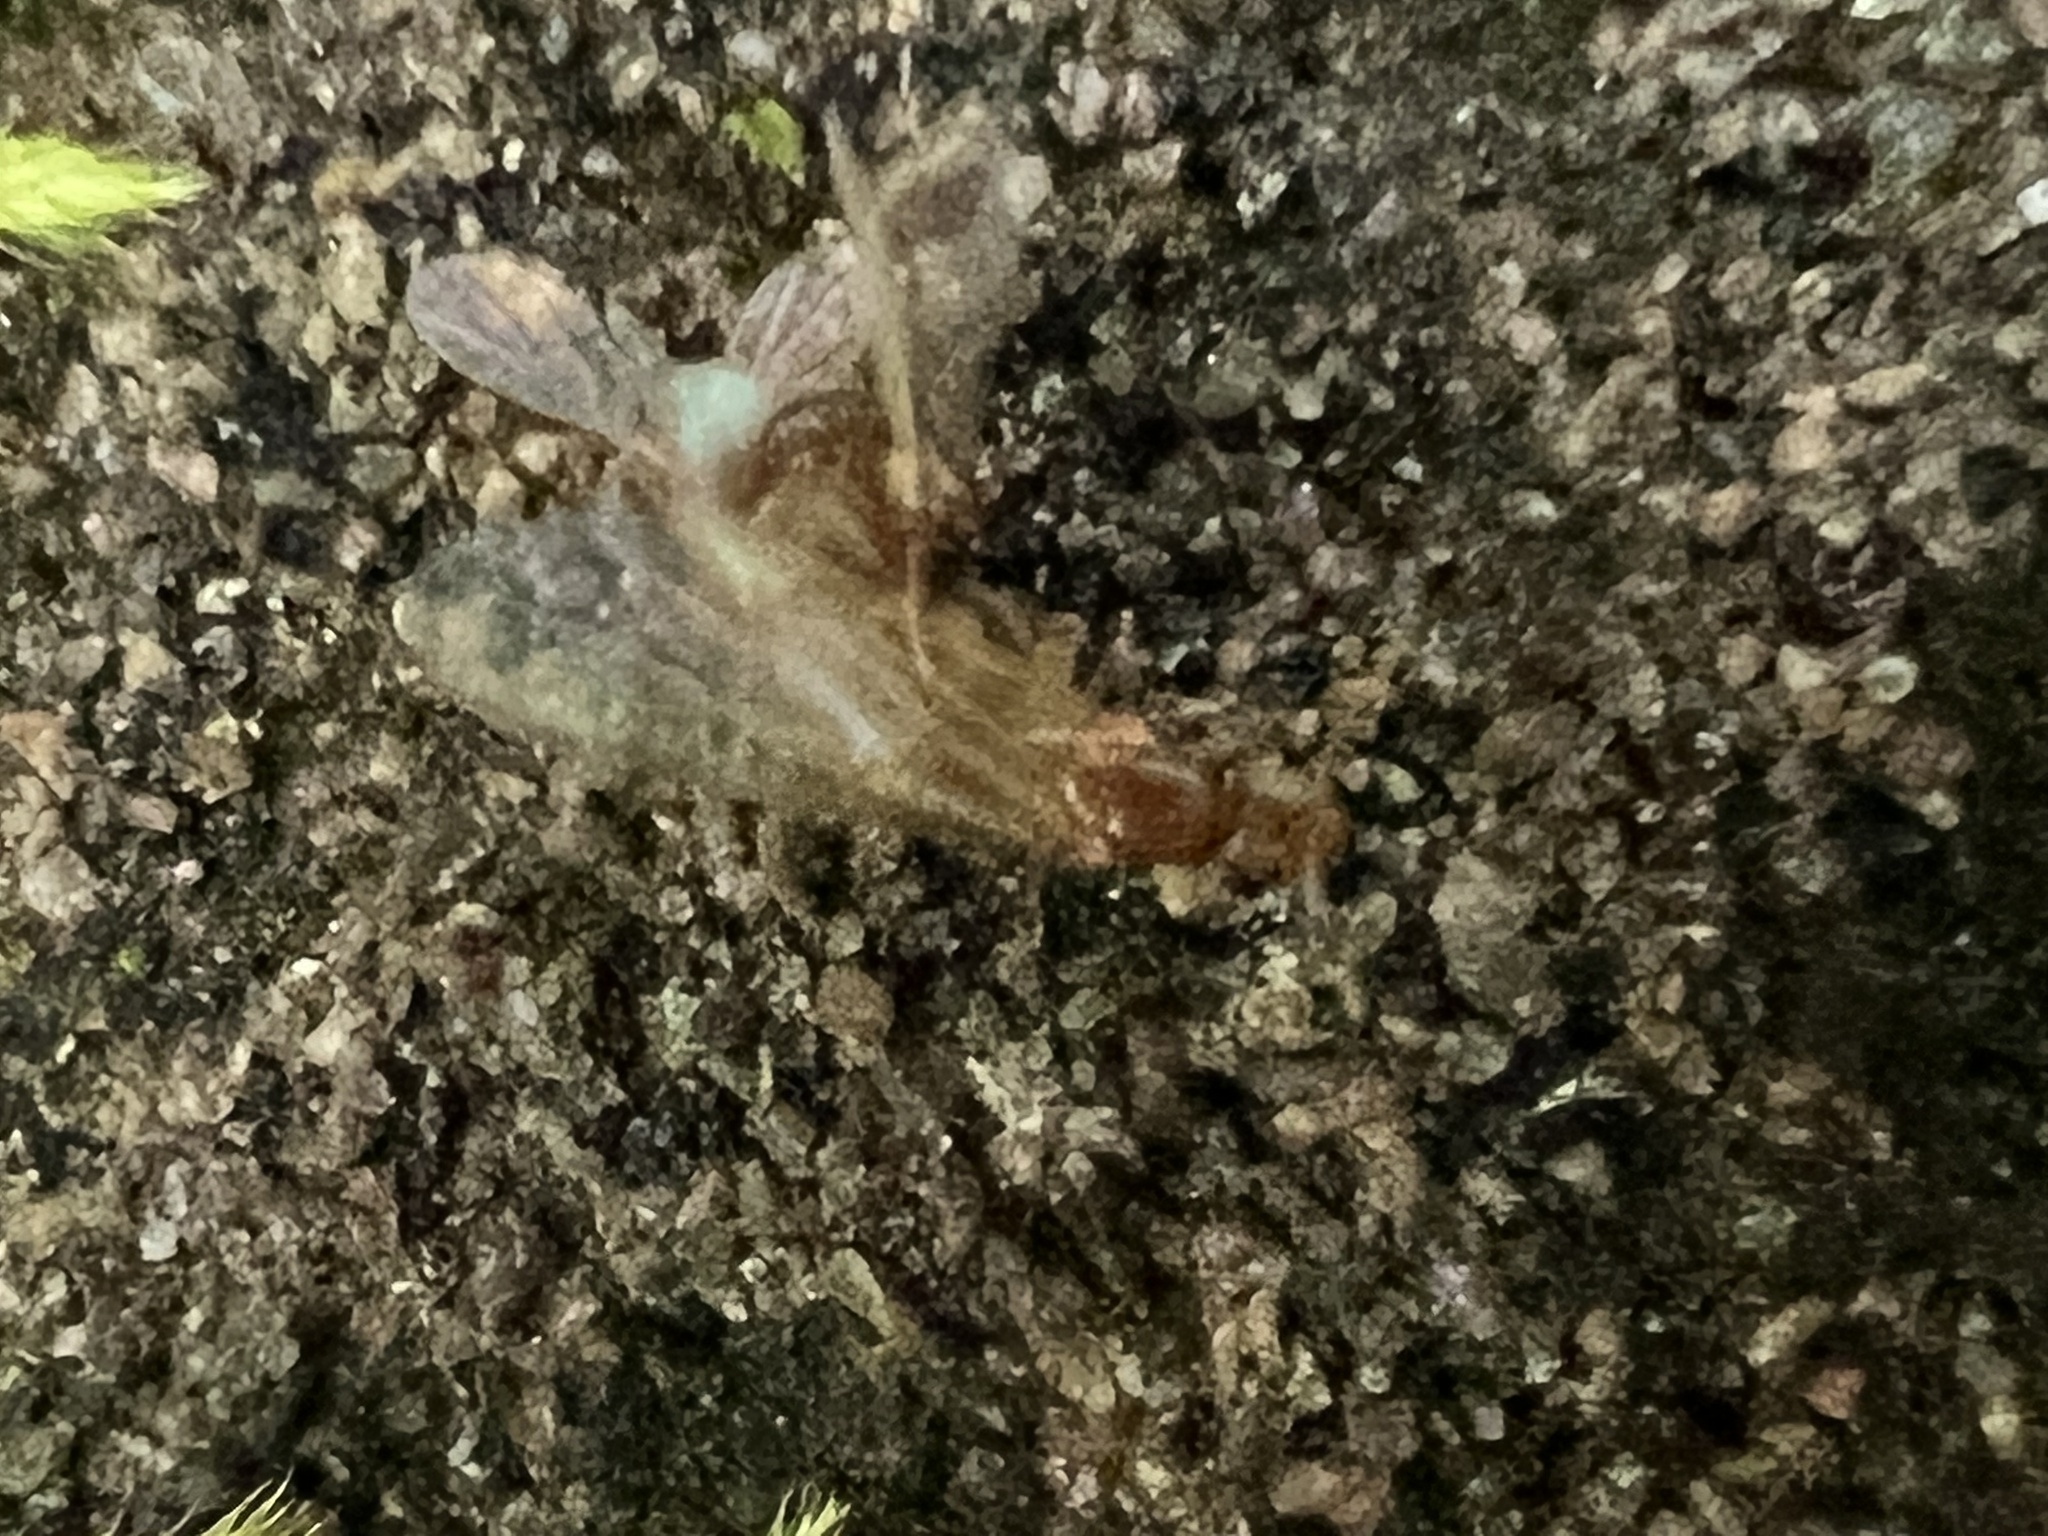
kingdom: Animalia
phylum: Arthropoda
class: Insecta
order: Hymenoptera
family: Formicidae
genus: Brachymyrmex
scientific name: Brachymyrmex depilis
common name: Hairless rover ant
